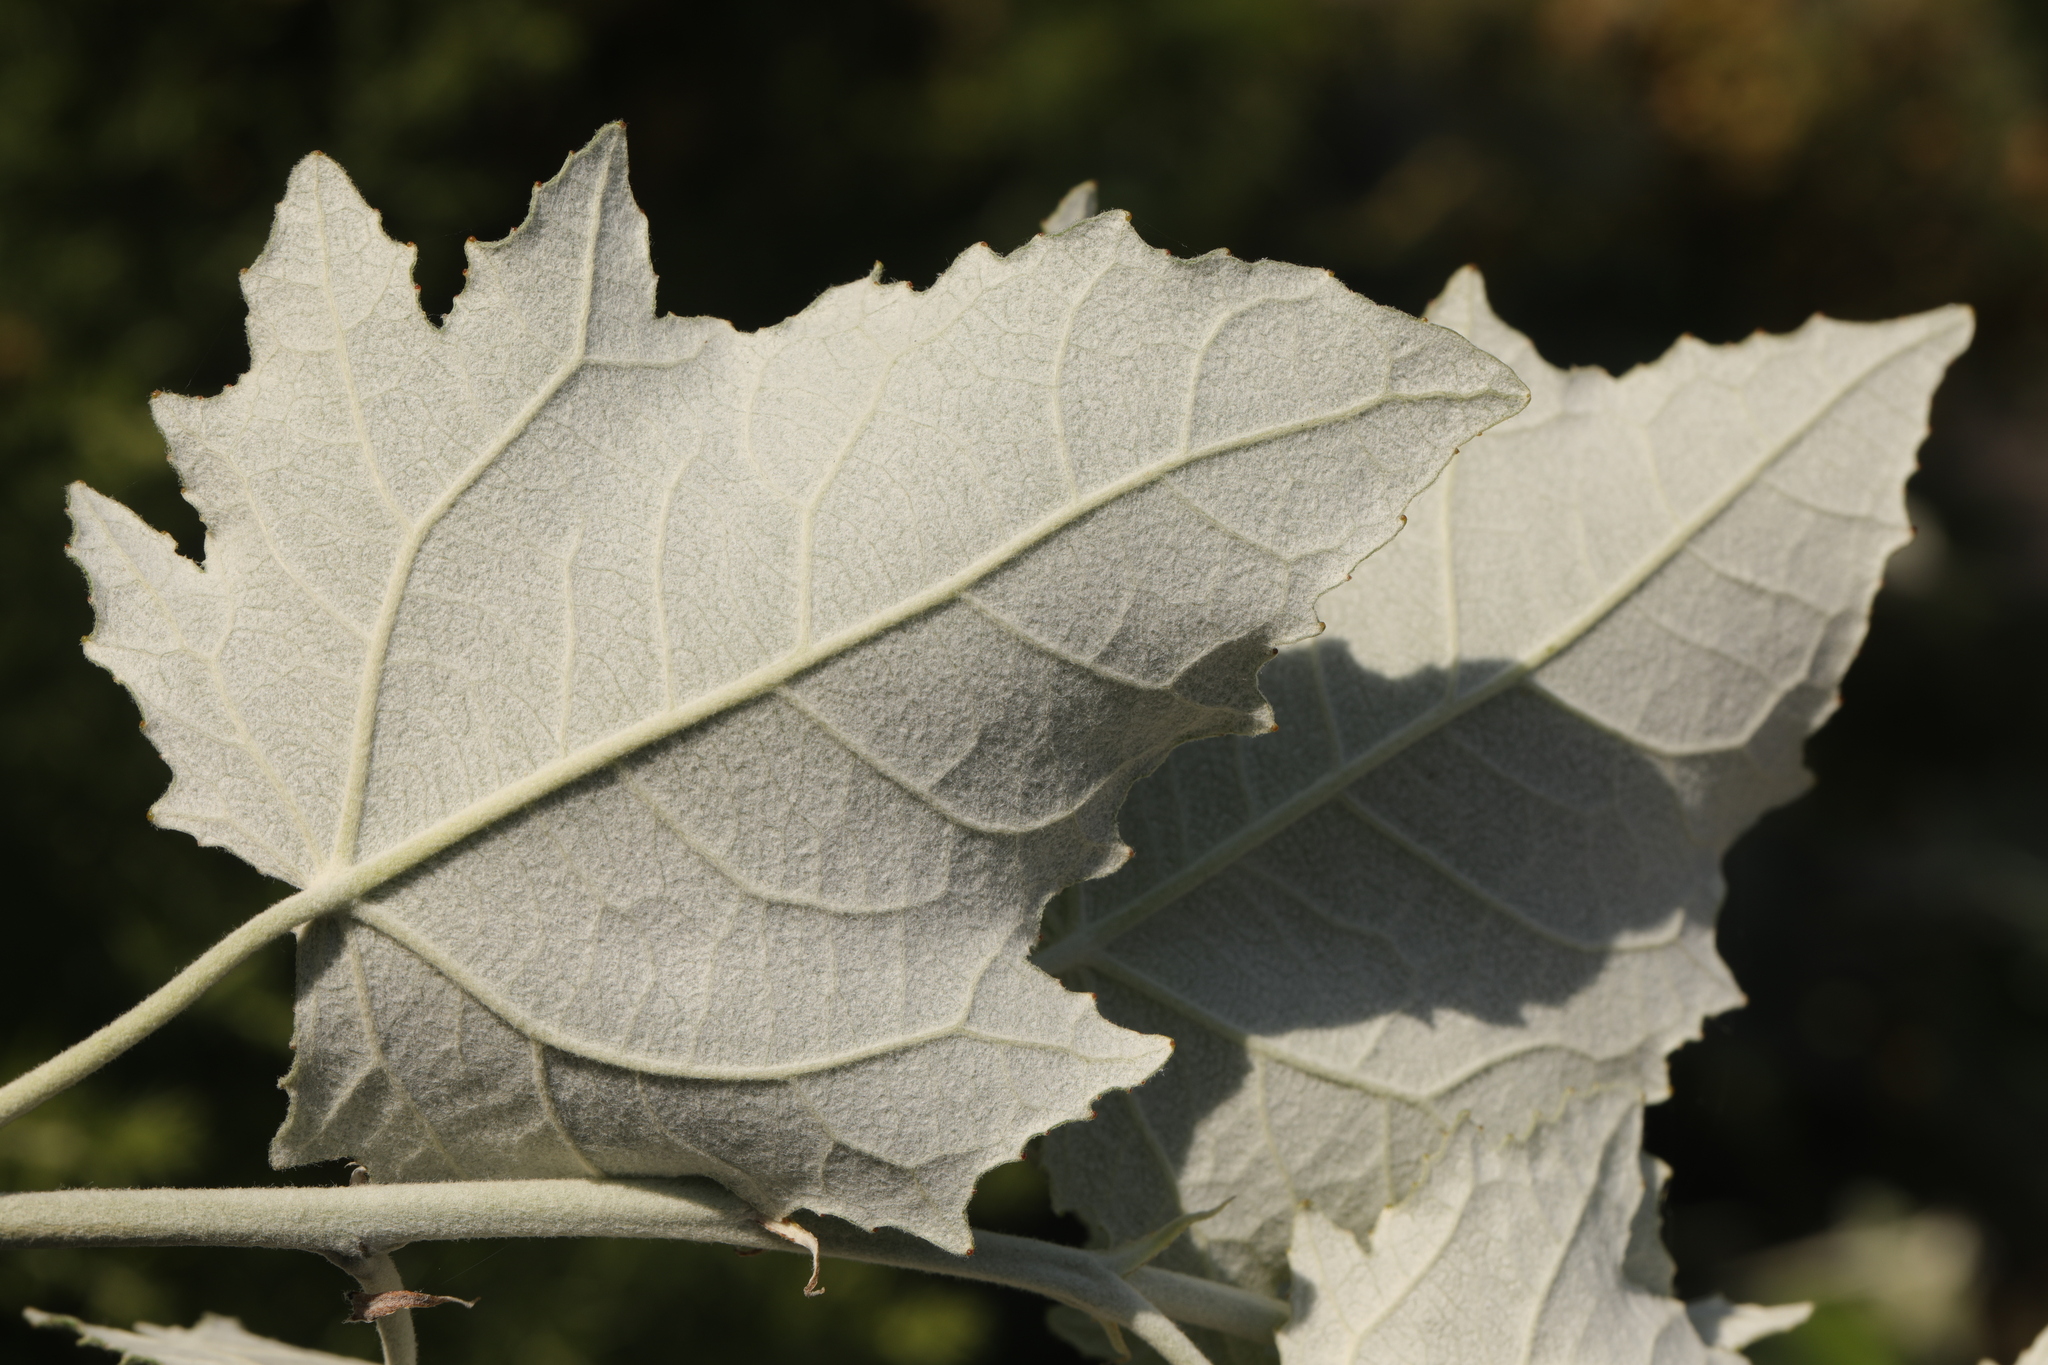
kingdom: Plantae
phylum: Tracheophyta
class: Magnoliopsida
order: Malpighiales
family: Salicaceae
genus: Populus
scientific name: Populus alba
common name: White poplar
